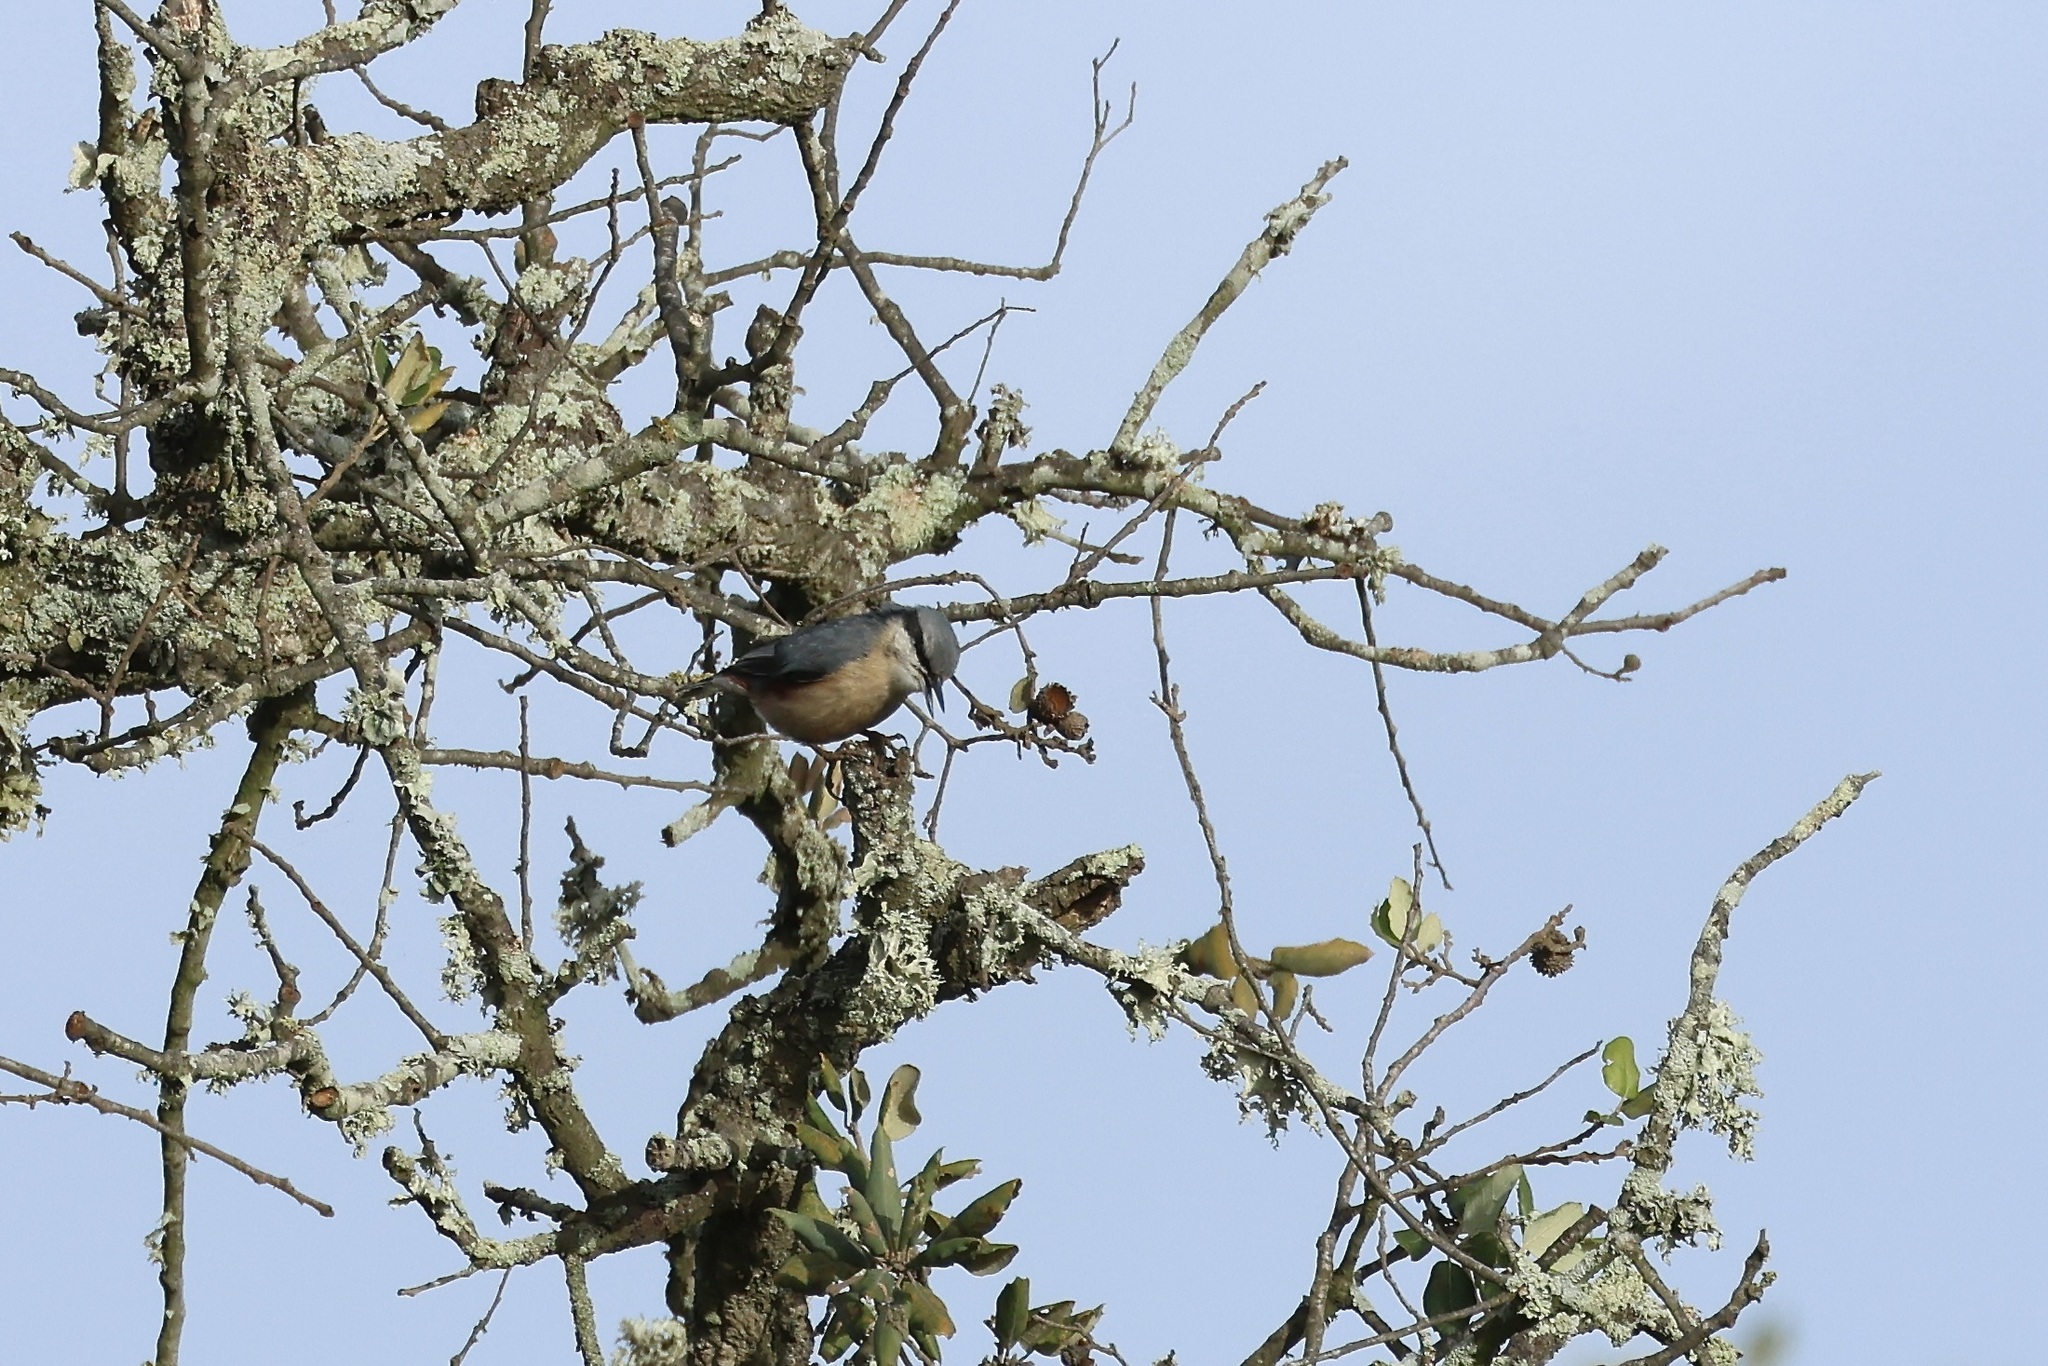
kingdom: Animalia
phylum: Chordata
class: Aves
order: Passeriformes
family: Sittidae
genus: Sitta
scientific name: Sitta europaea
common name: Eurasian nuthatch
